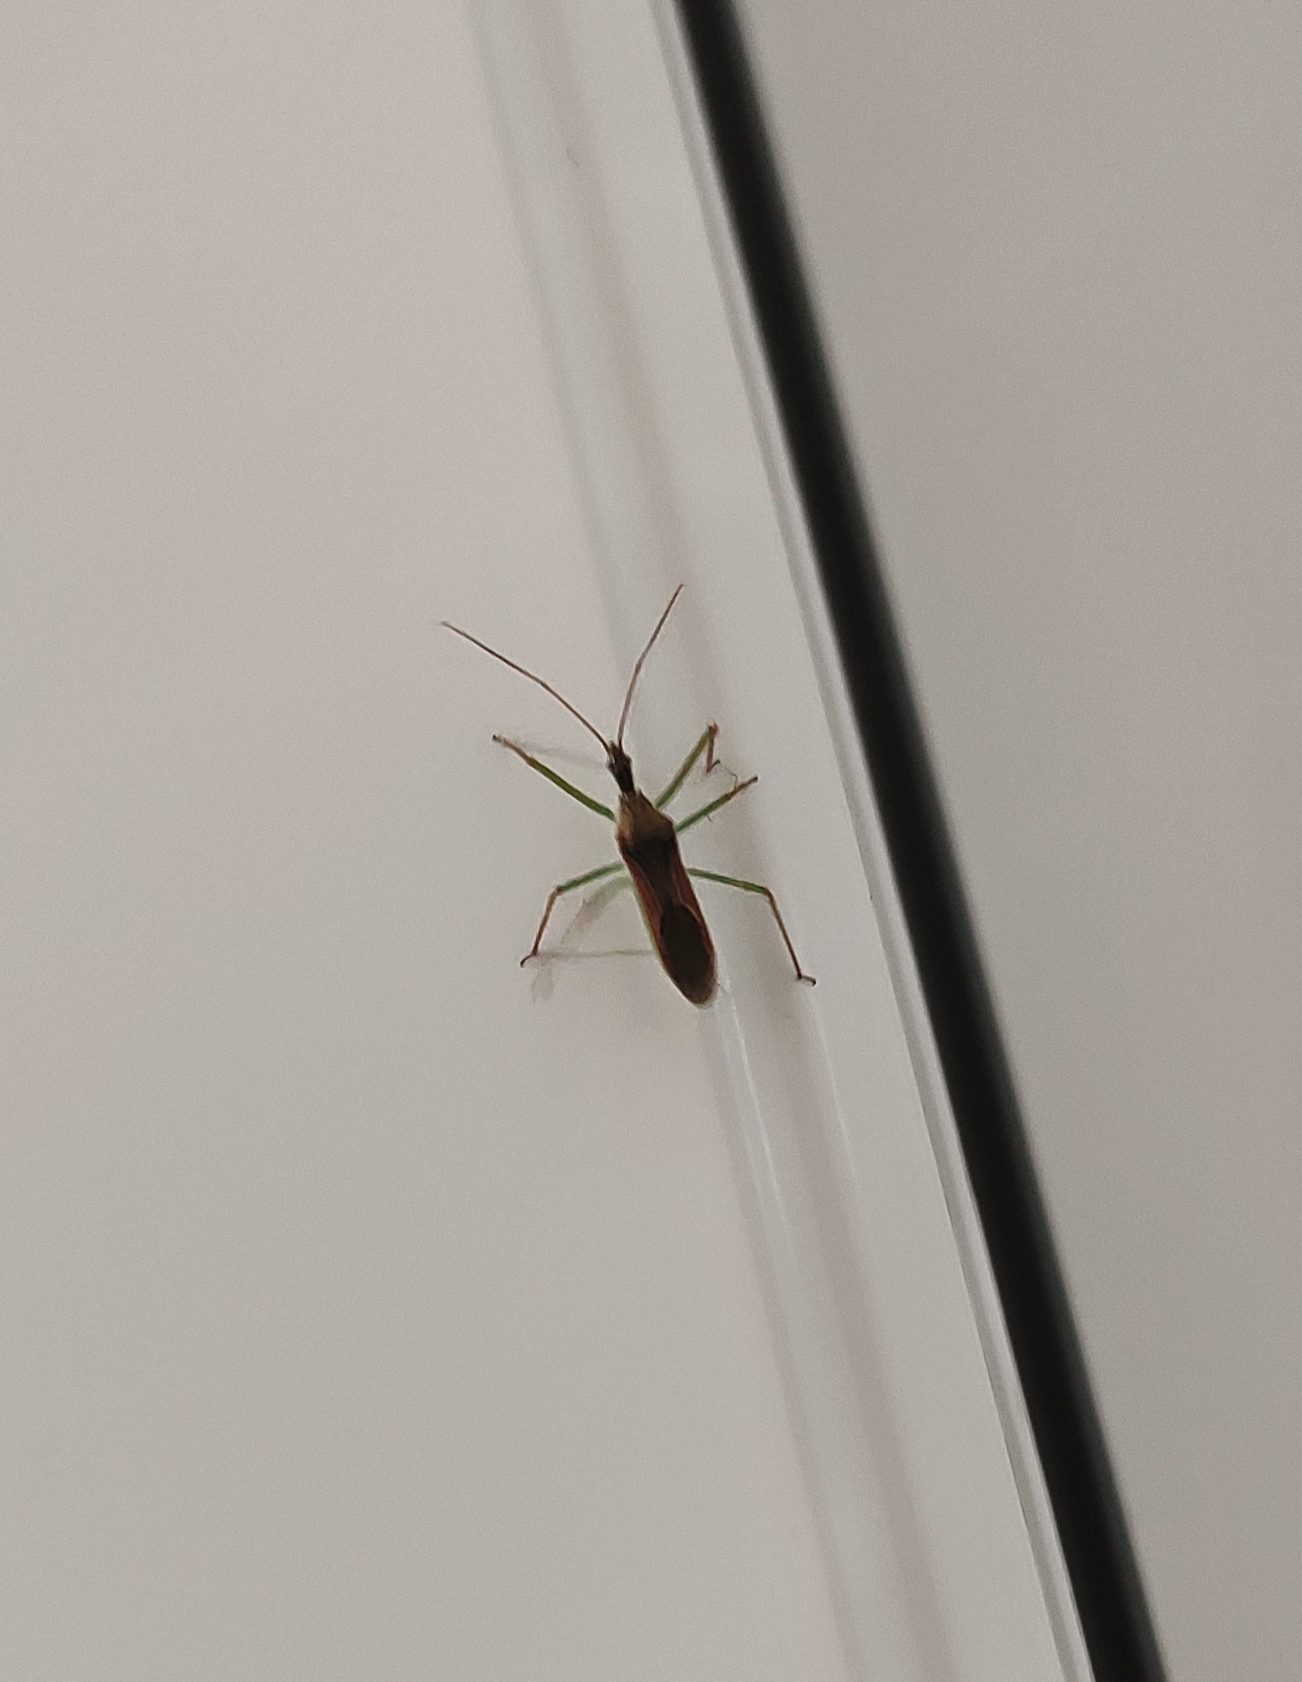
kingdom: Animalia
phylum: Arthropoda
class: Insecta
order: Hemiptera
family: Reduviidae
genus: Zelus
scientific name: Zelus renardii
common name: Assassin bug
